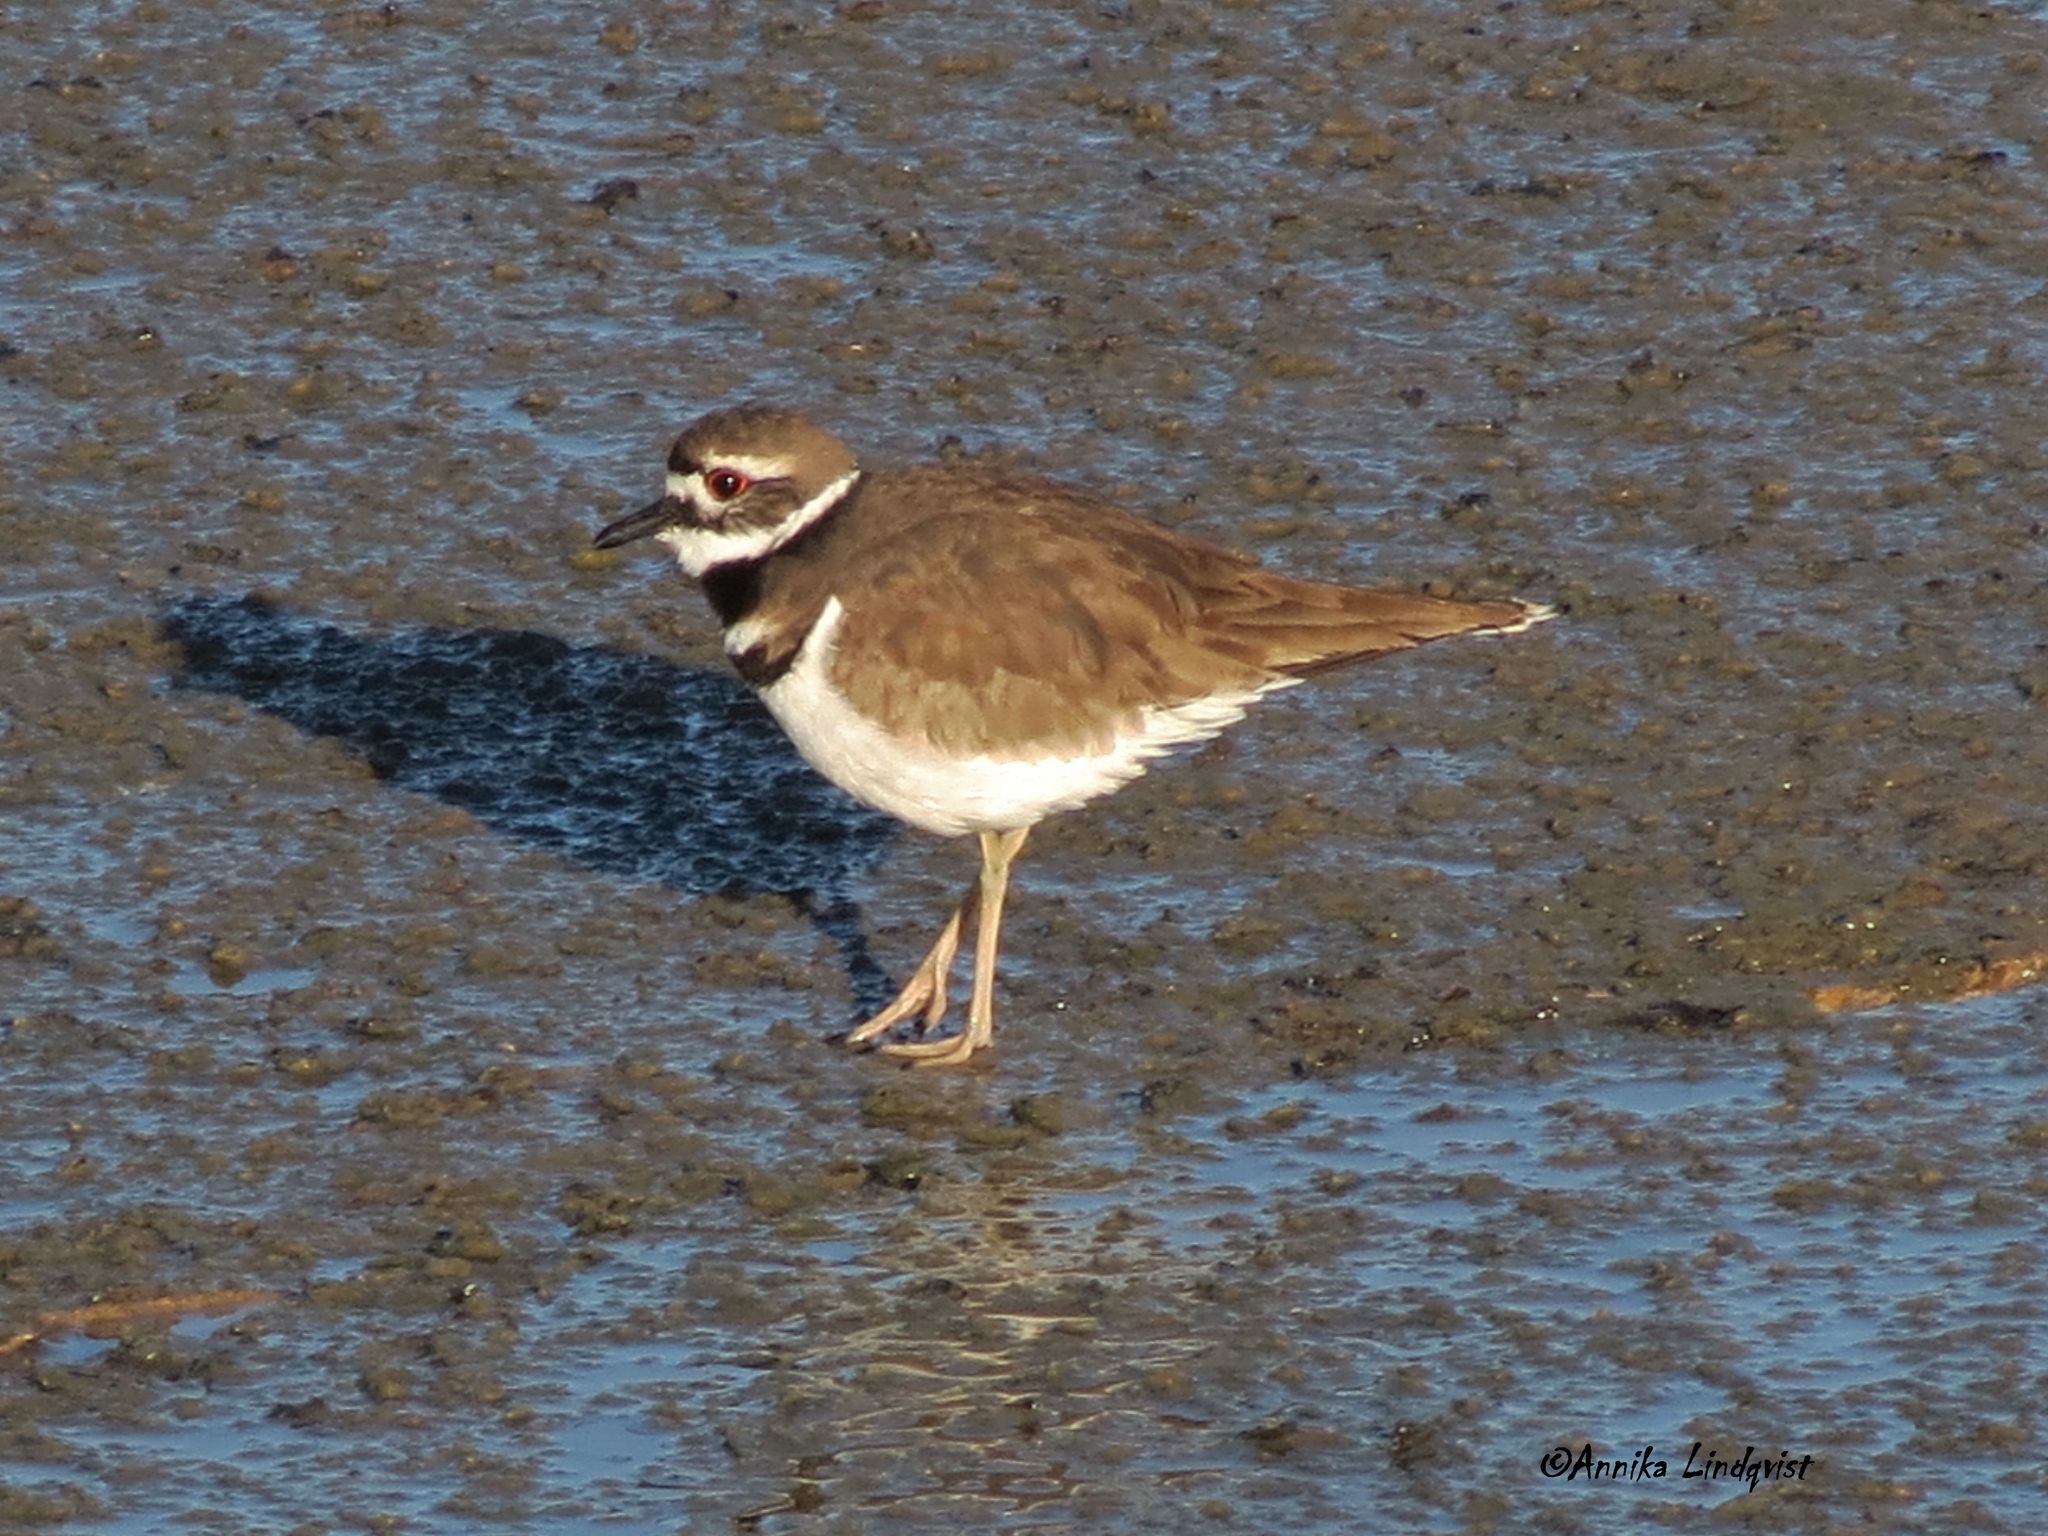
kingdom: Animalia
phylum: Chordata
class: Aves
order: Charadriiformes
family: Charadriidae
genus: Charadrius
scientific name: Charadrius vociferus
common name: Killdeer
